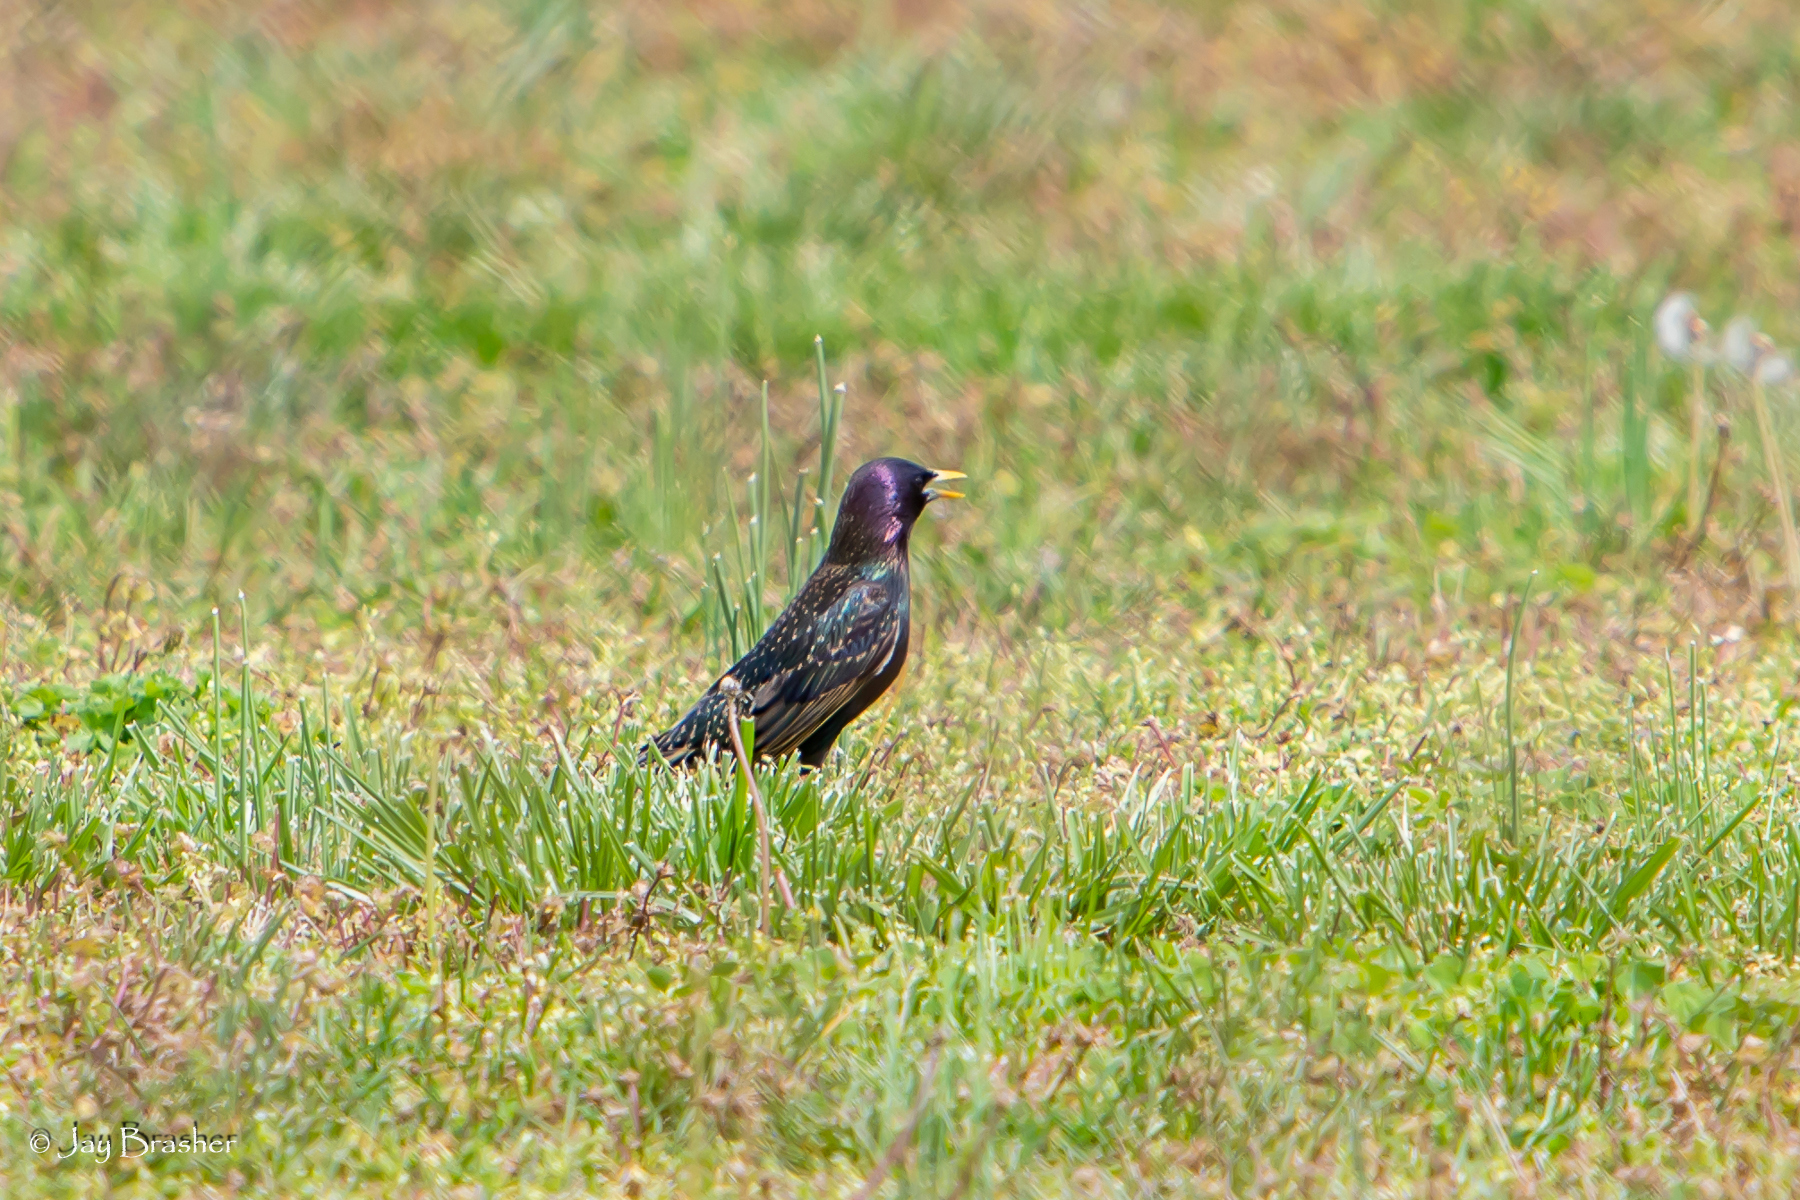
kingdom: Animalia
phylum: Chordata
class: Aves
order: Passeriformes
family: Sturnidae
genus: Sturnus
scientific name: Sturnus vulgaris
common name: Common starling
